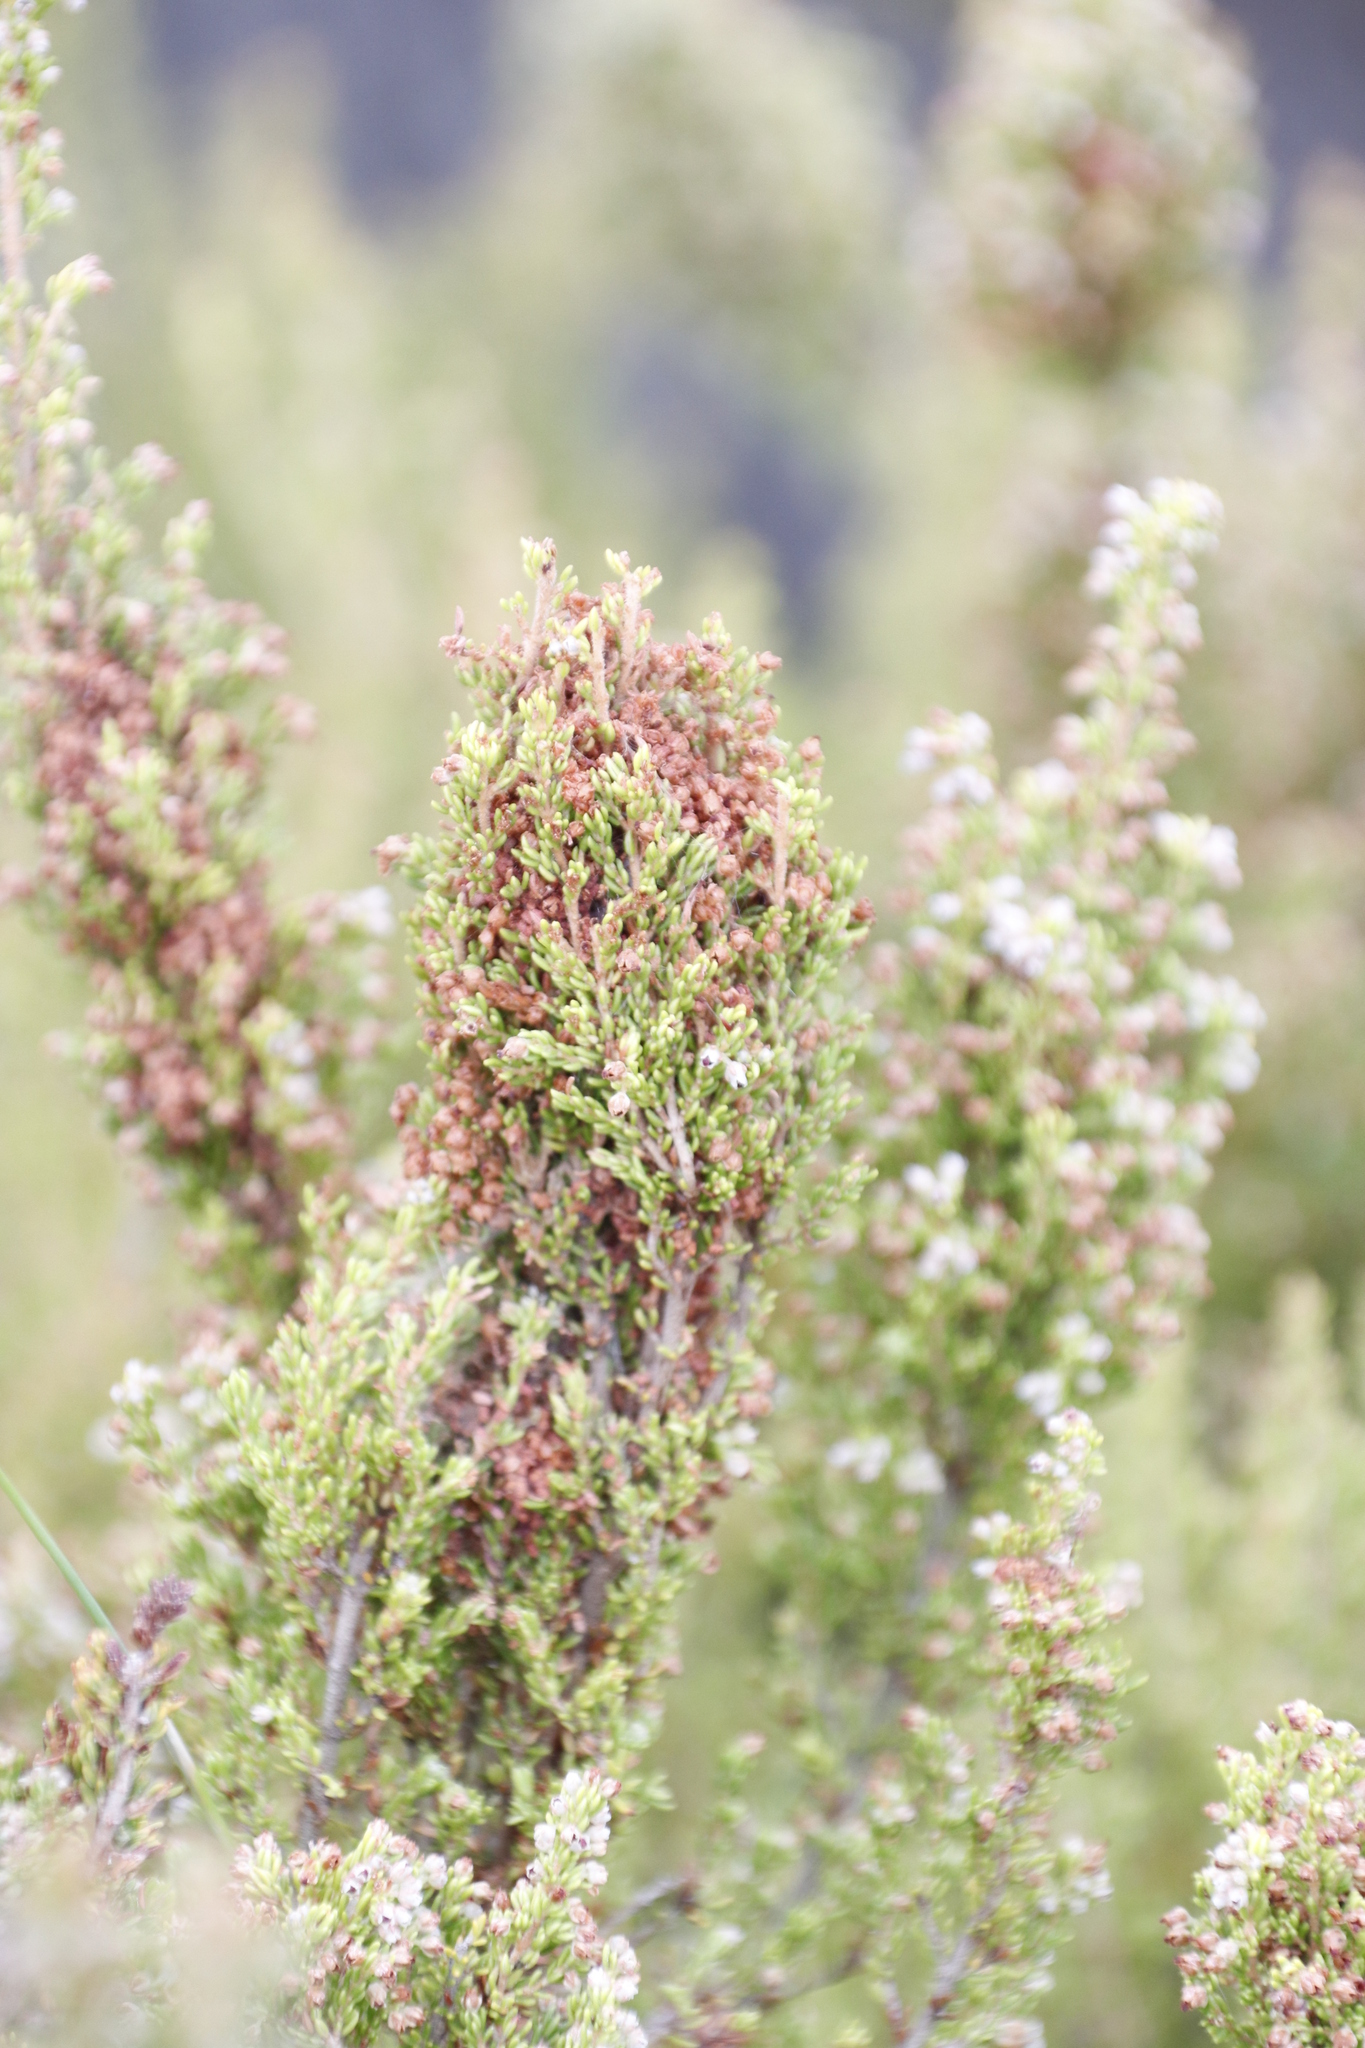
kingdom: Animalia
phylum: Arthropoda
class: Insecta
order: Lepidoptera
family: Pyralidae
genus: Triphassa
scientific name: Triphassa stalachtis
